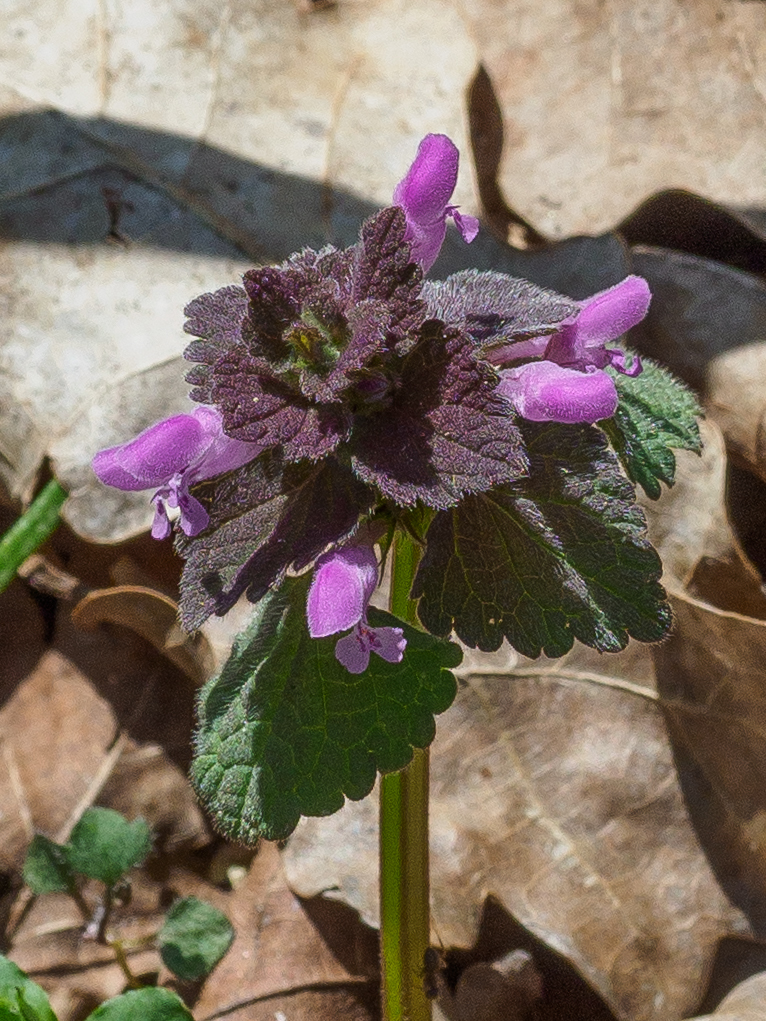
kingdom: Plantae
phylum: Tracheophyta
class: Magnoliopsida
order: Lamiales
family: Lamiaceae
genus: Lamium
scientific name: Lamium purpureum
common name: Red dead-nettle
